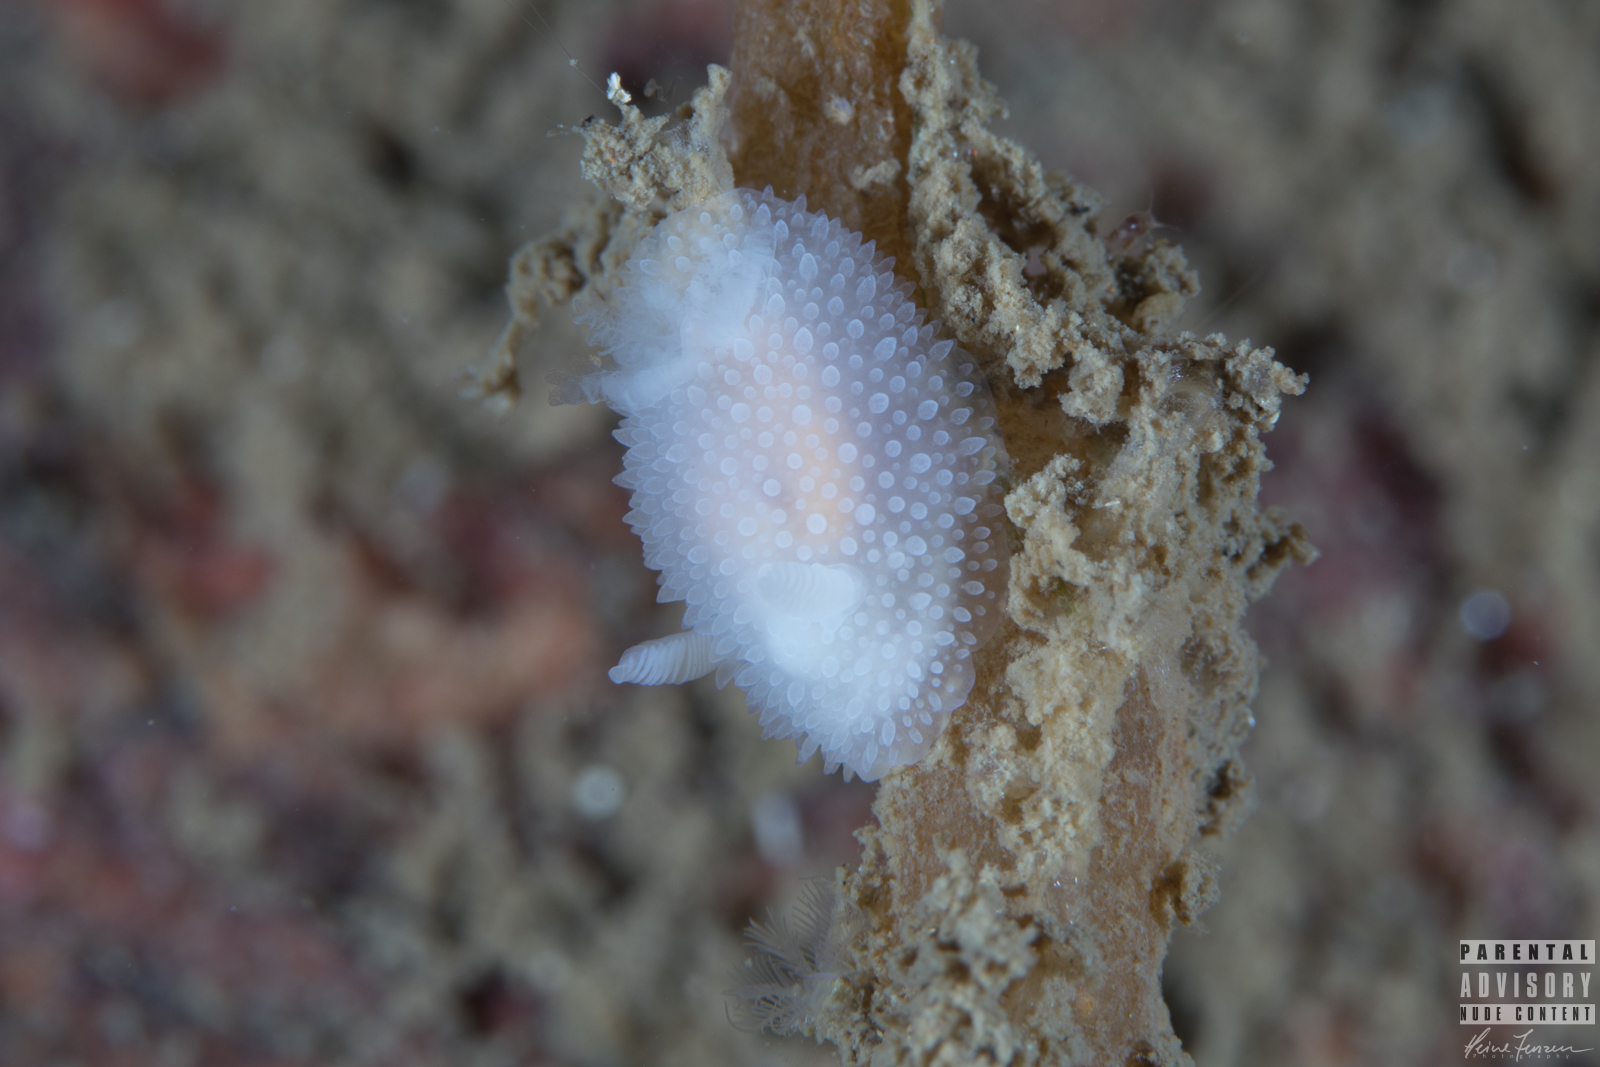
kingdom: Animalia
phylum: Mollusca
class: Gastropoda
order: Nudibranchia
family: Onchidorididae
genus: Acanthodoris
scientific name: Acanthodoris pilosa
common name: Hairy spiny doris
